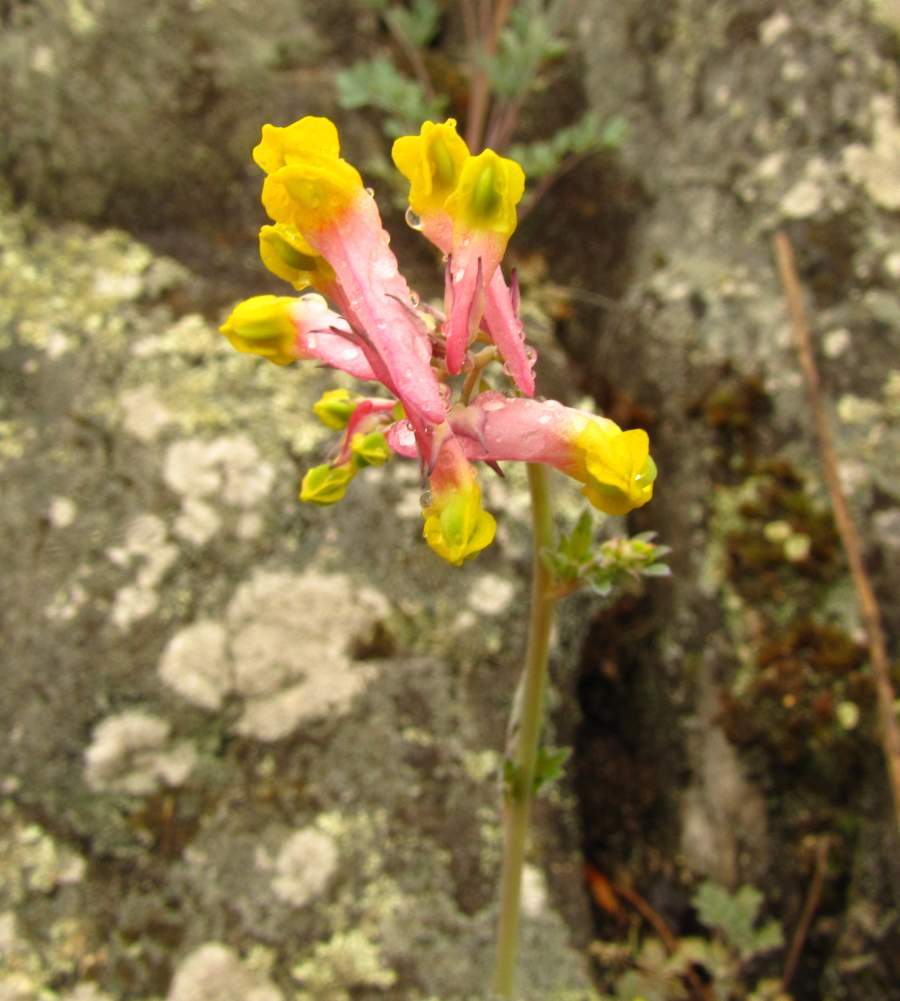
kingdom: Plantae
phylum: Tracheophyta
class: Magnoliopsida
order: Ranunculales
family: Papaveraceae
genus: Capnoides
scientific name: Capnoides sempervirens
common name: Rock harlequin
